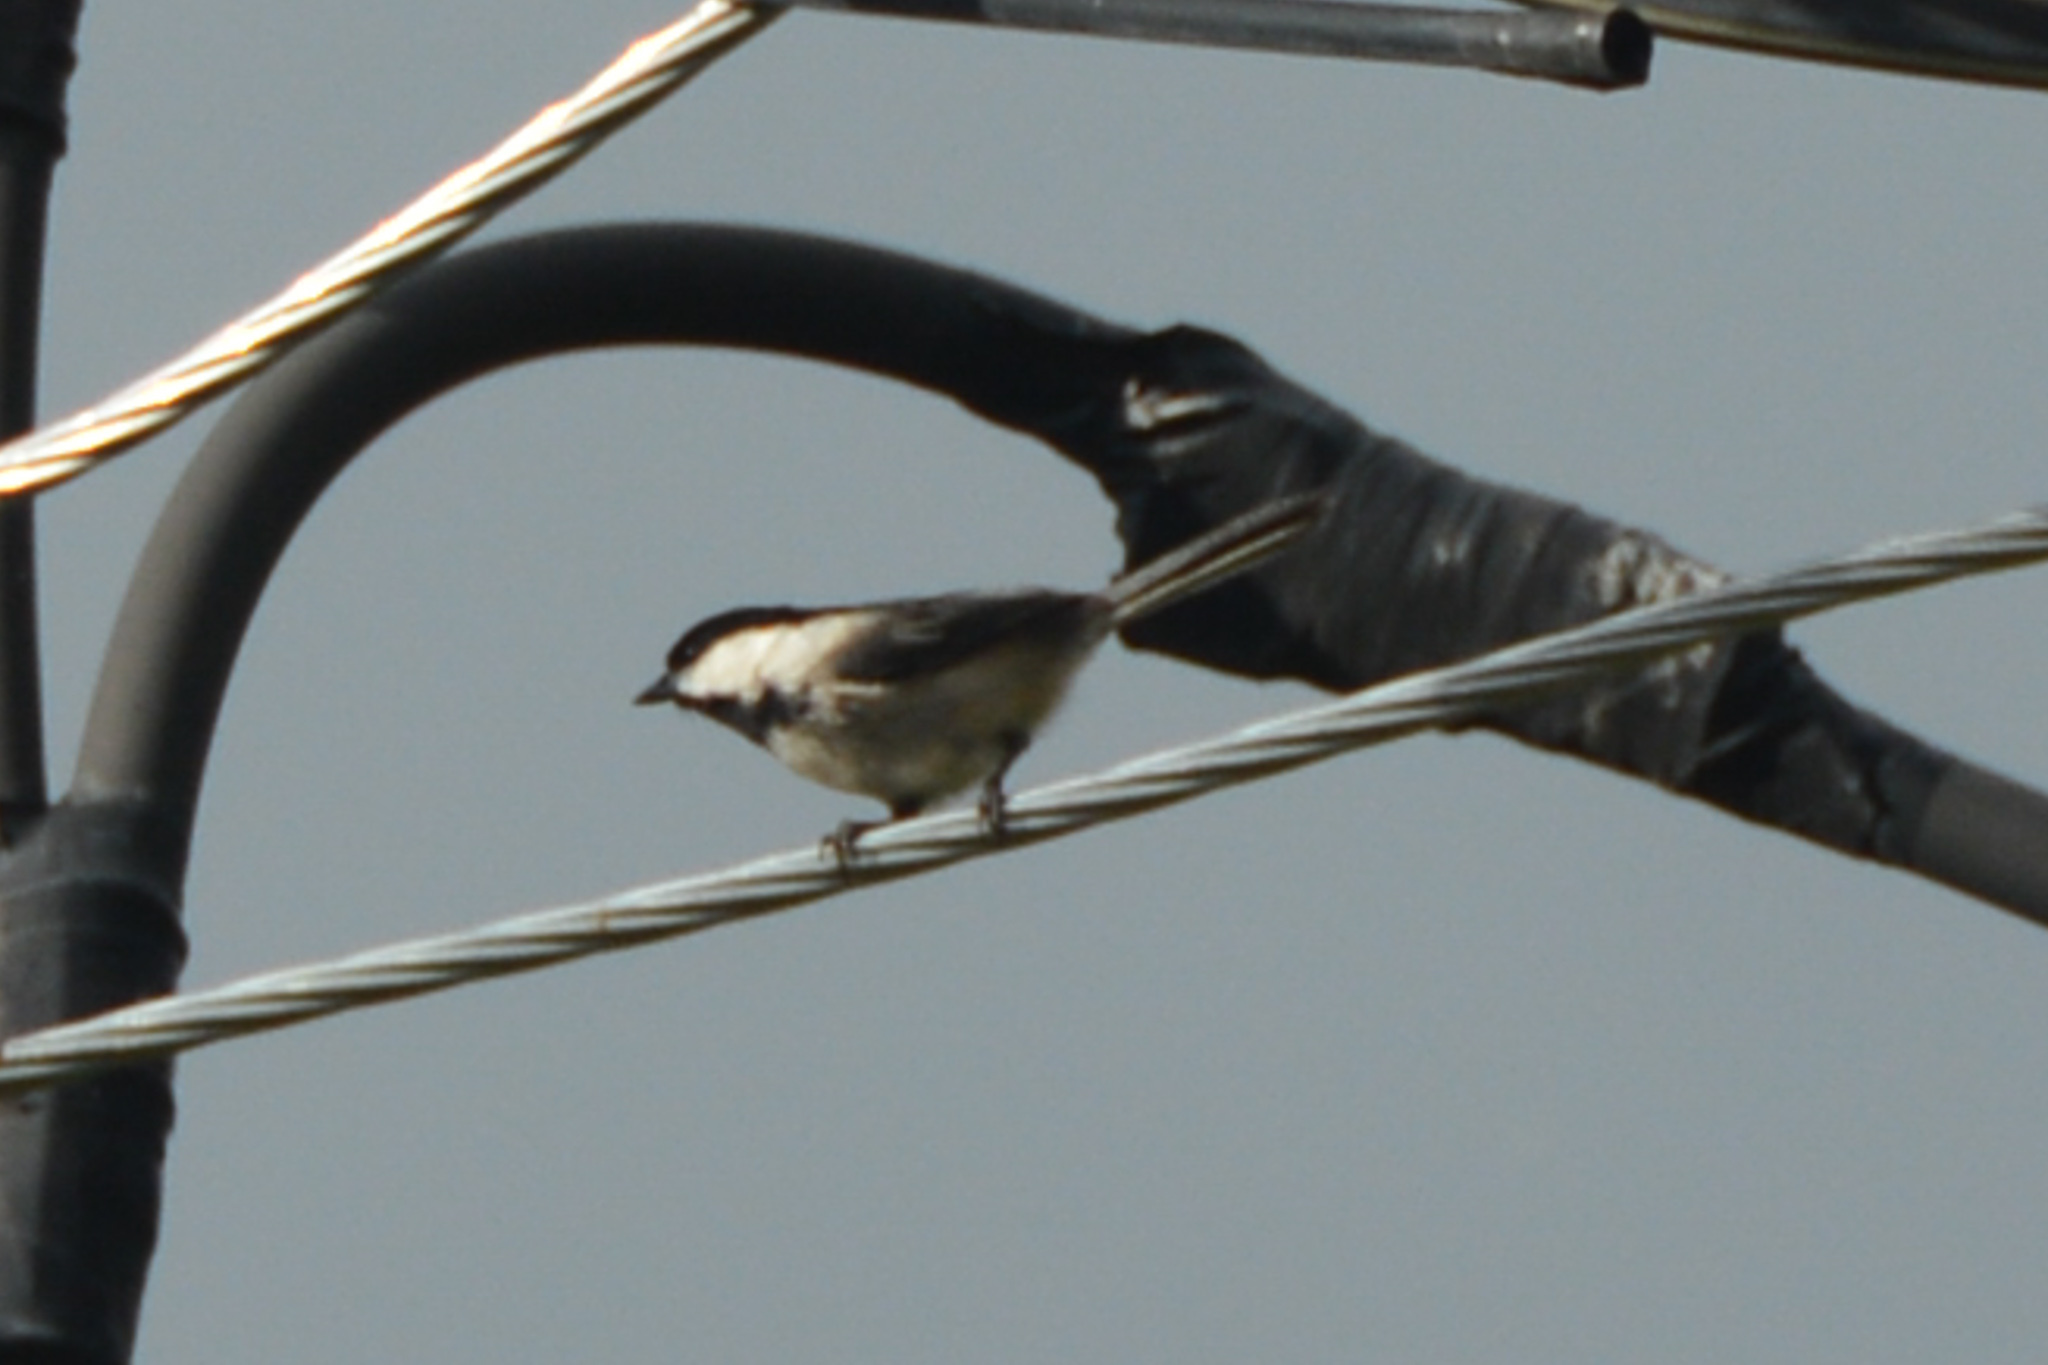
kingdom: Animalia
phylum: Chordata
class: Aves
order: Passeriformes
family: Paridae
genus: Poecile
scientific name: Poecile atricapillus
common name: Black-capped chickadee
